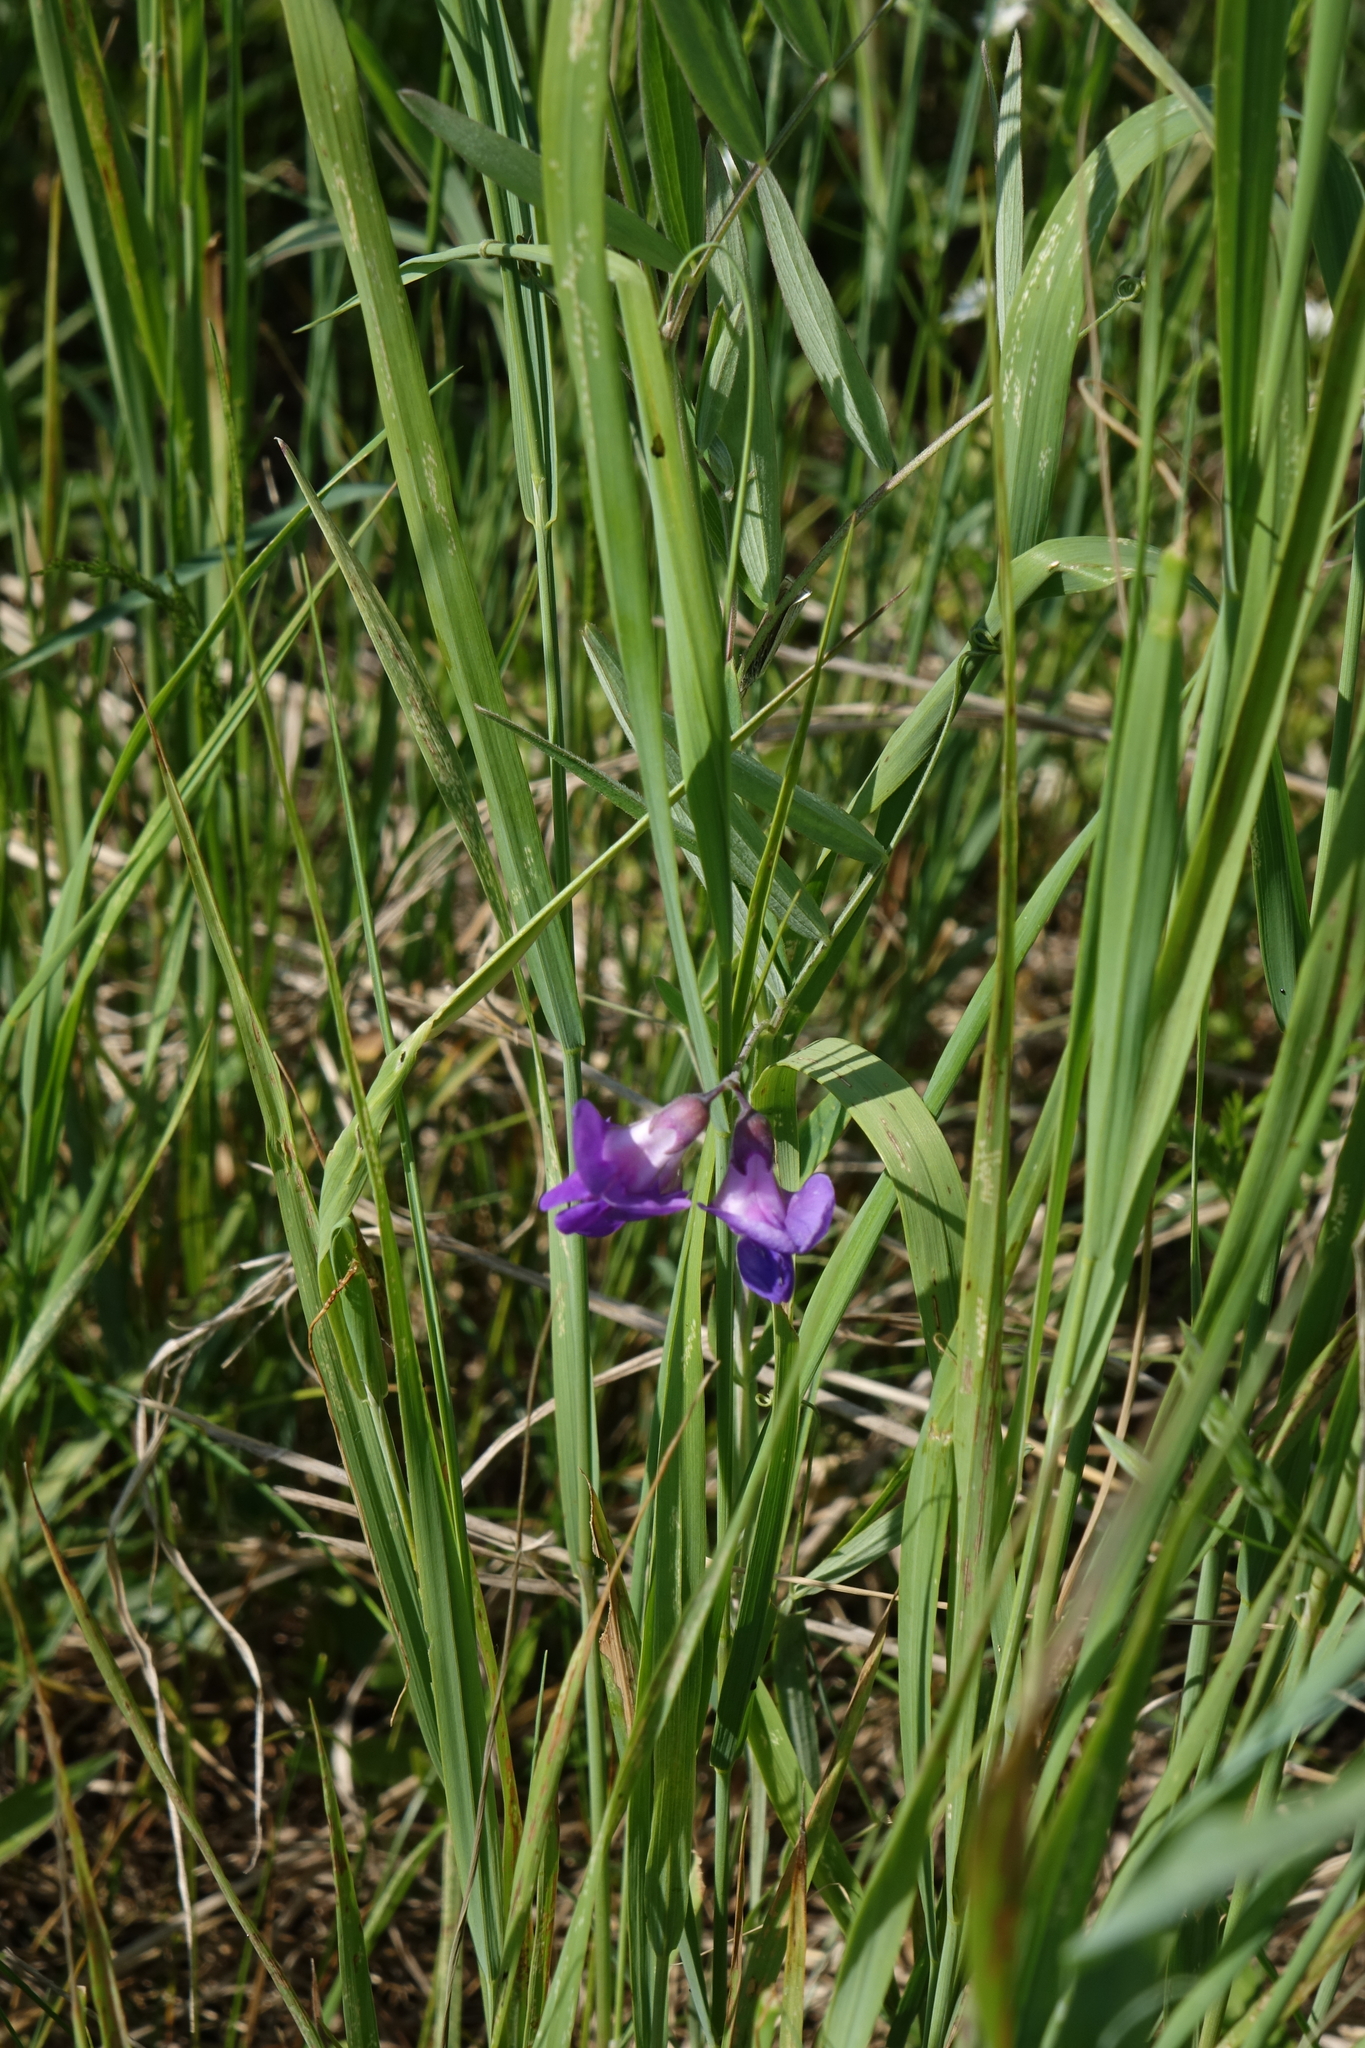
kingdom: Plantae
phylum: Tracheophyta
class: Magnoliopsida
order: Fabales
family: Fabaceae
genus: Lathyrus
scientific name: Lathyrus palustris
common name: Marsh pea
